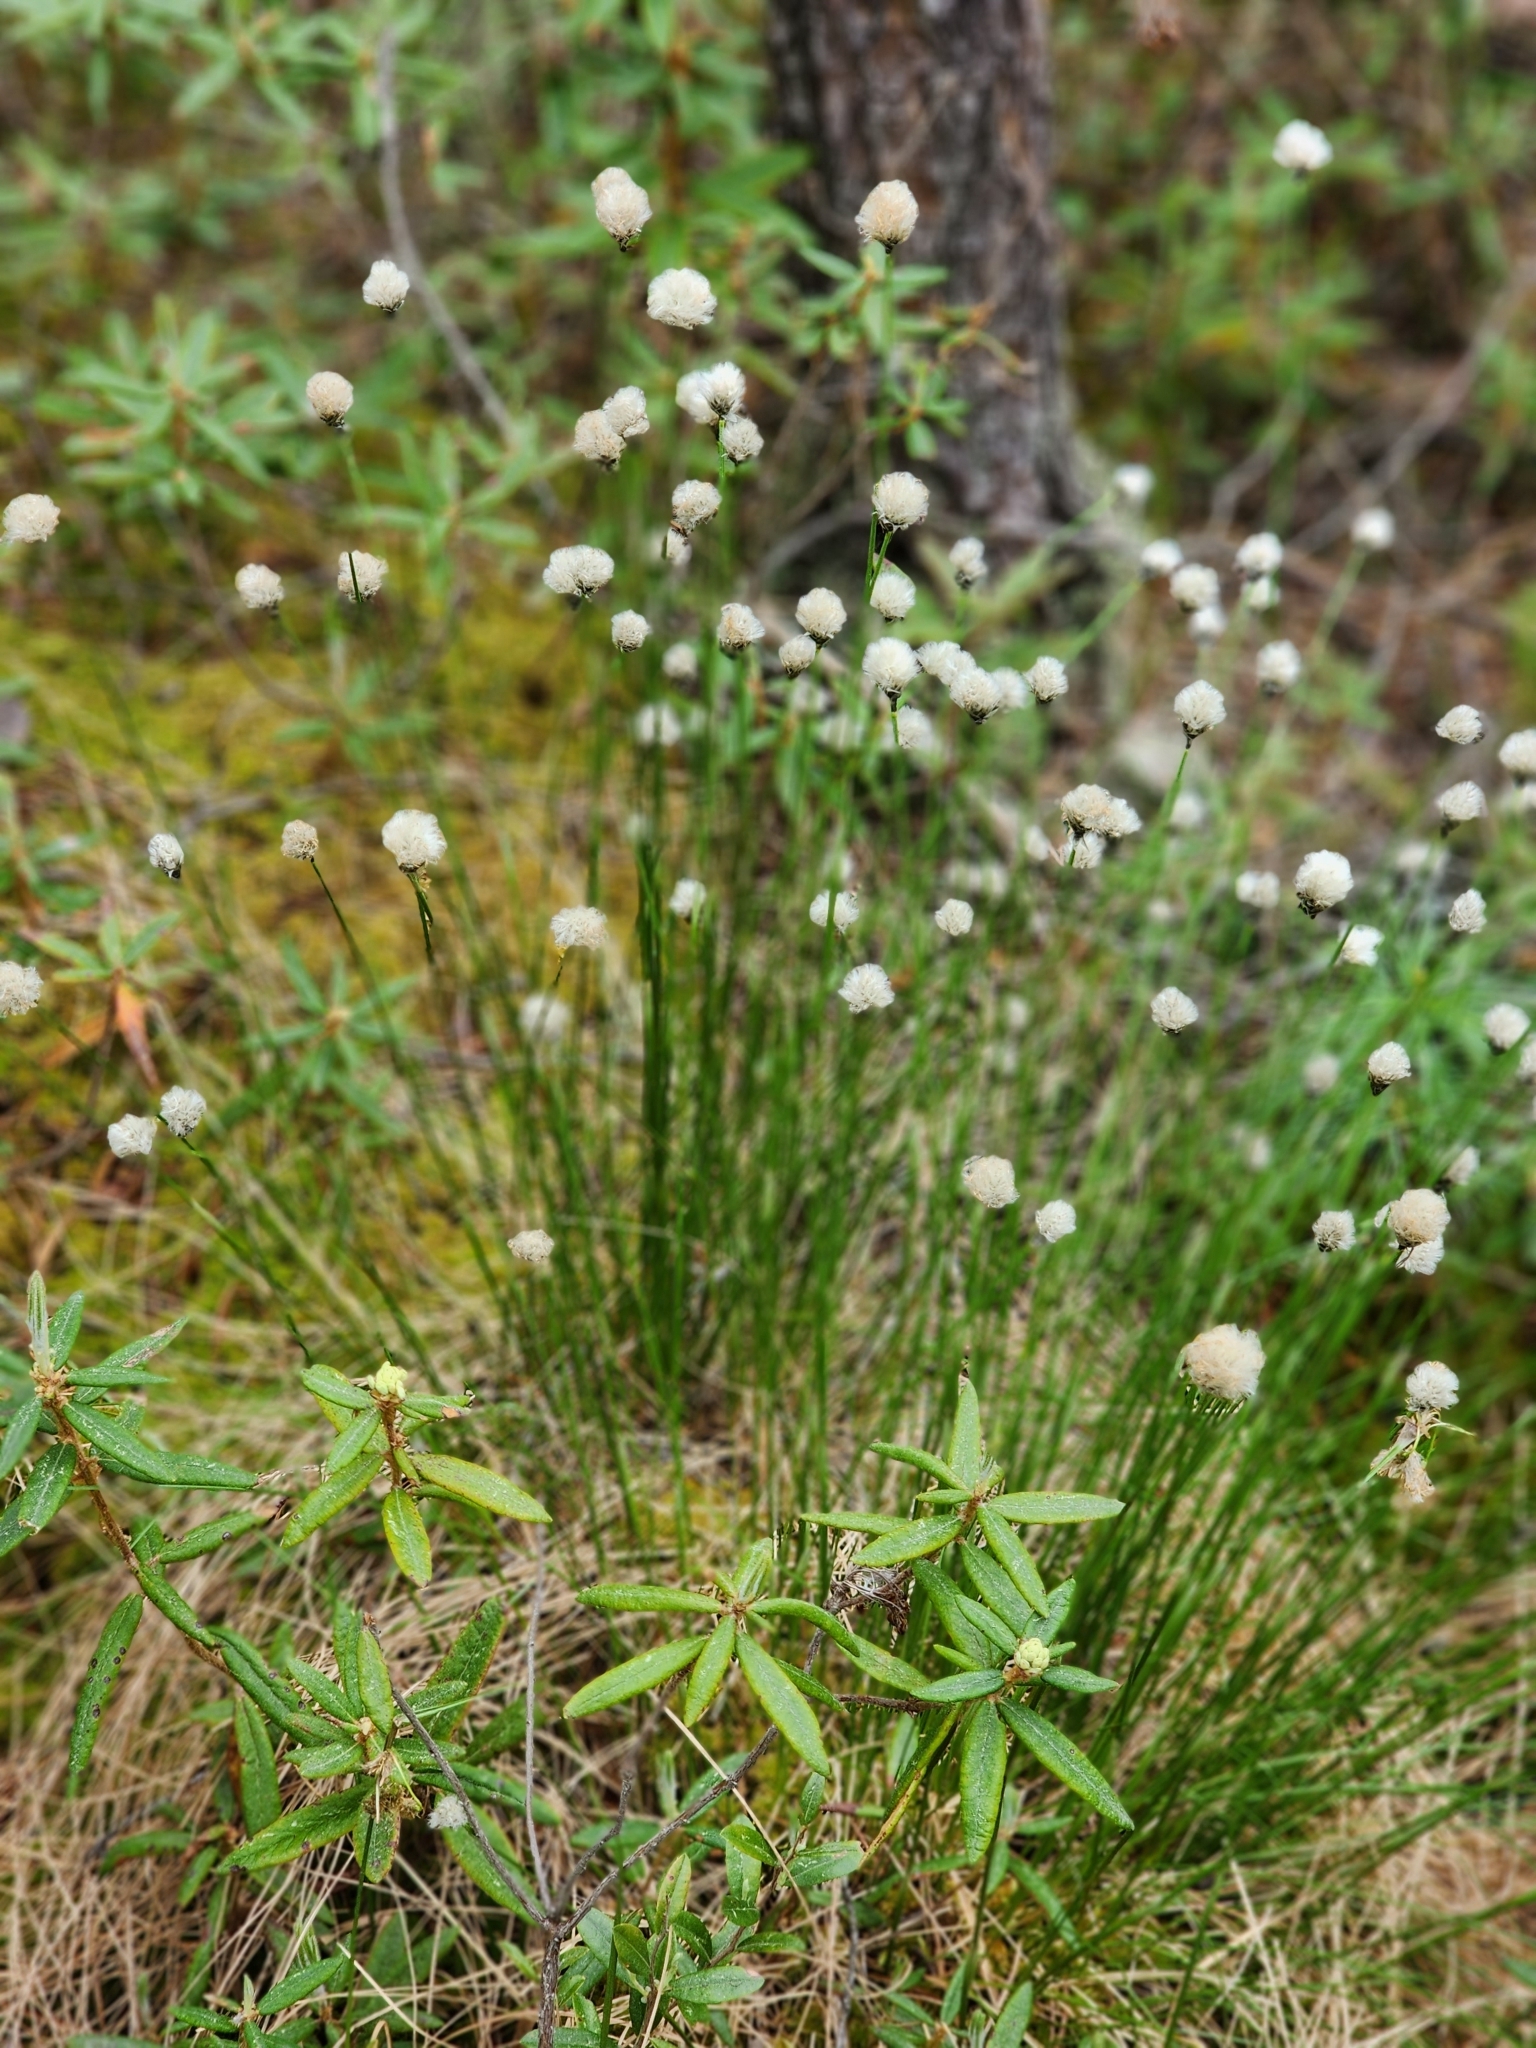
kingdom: Plantae
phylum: Tracheophyta
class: Liliopsida
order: Poales
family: Cyperaceae
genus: Eriophorum
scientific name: Eriophorum vaginatum
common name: Hare's-tail cottongrass
